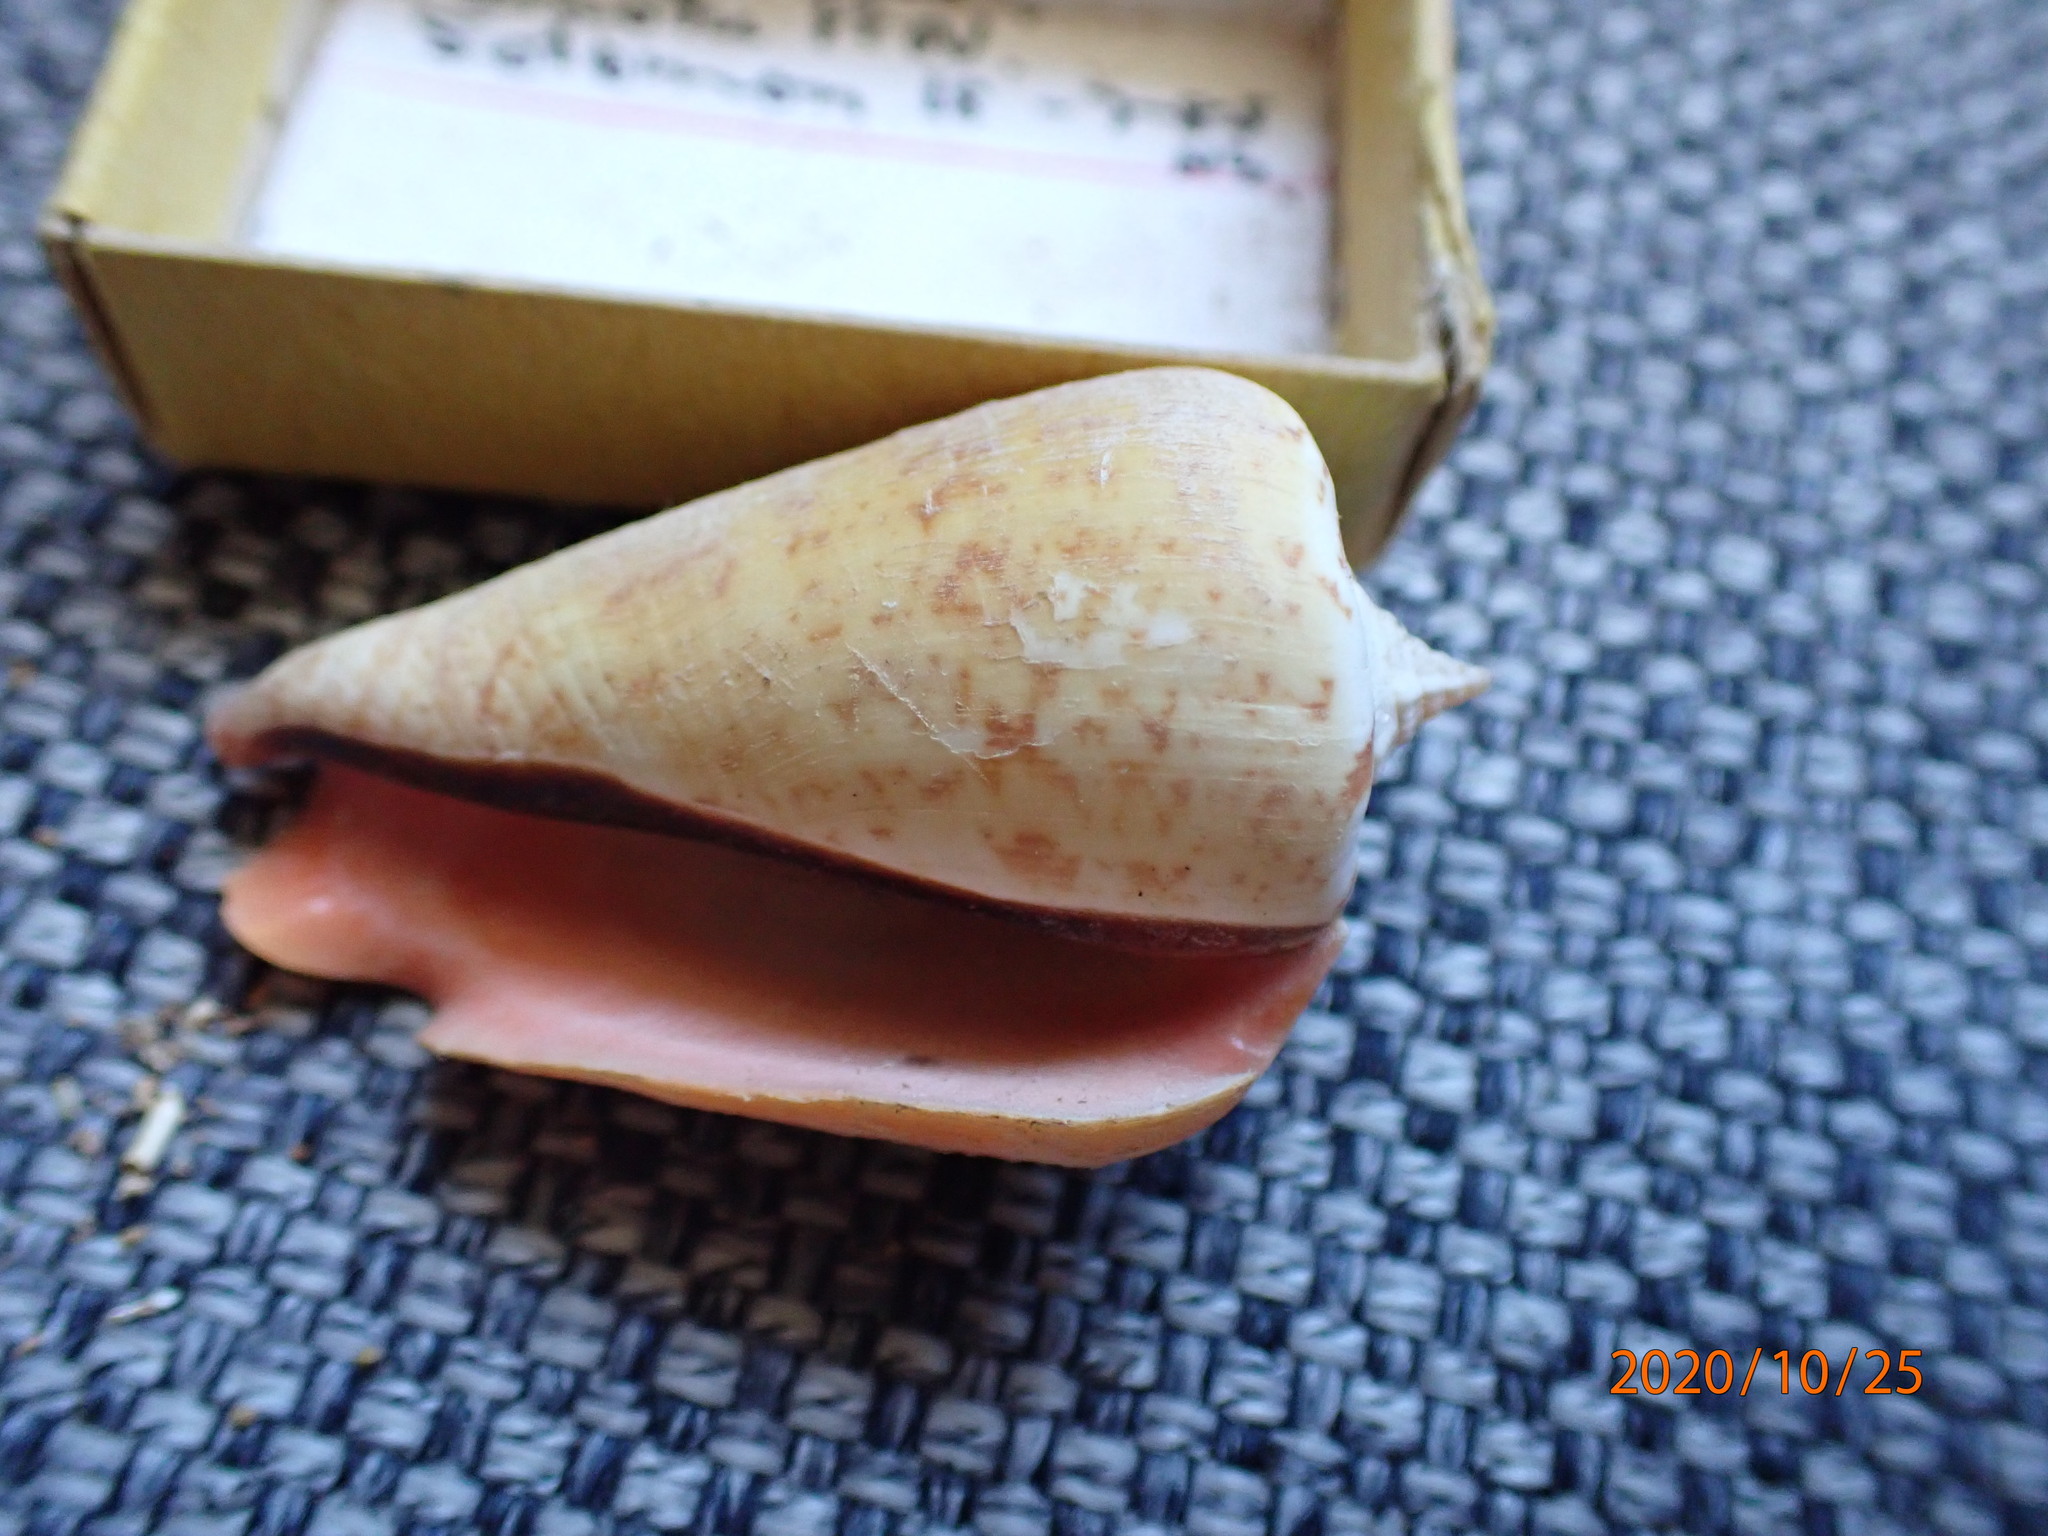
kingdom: Animalia
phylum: Mollusca
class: Gastropoda
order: Littorinimorpha
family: Strombidae
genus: Conomurex
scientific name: Conomurex luhuanus
